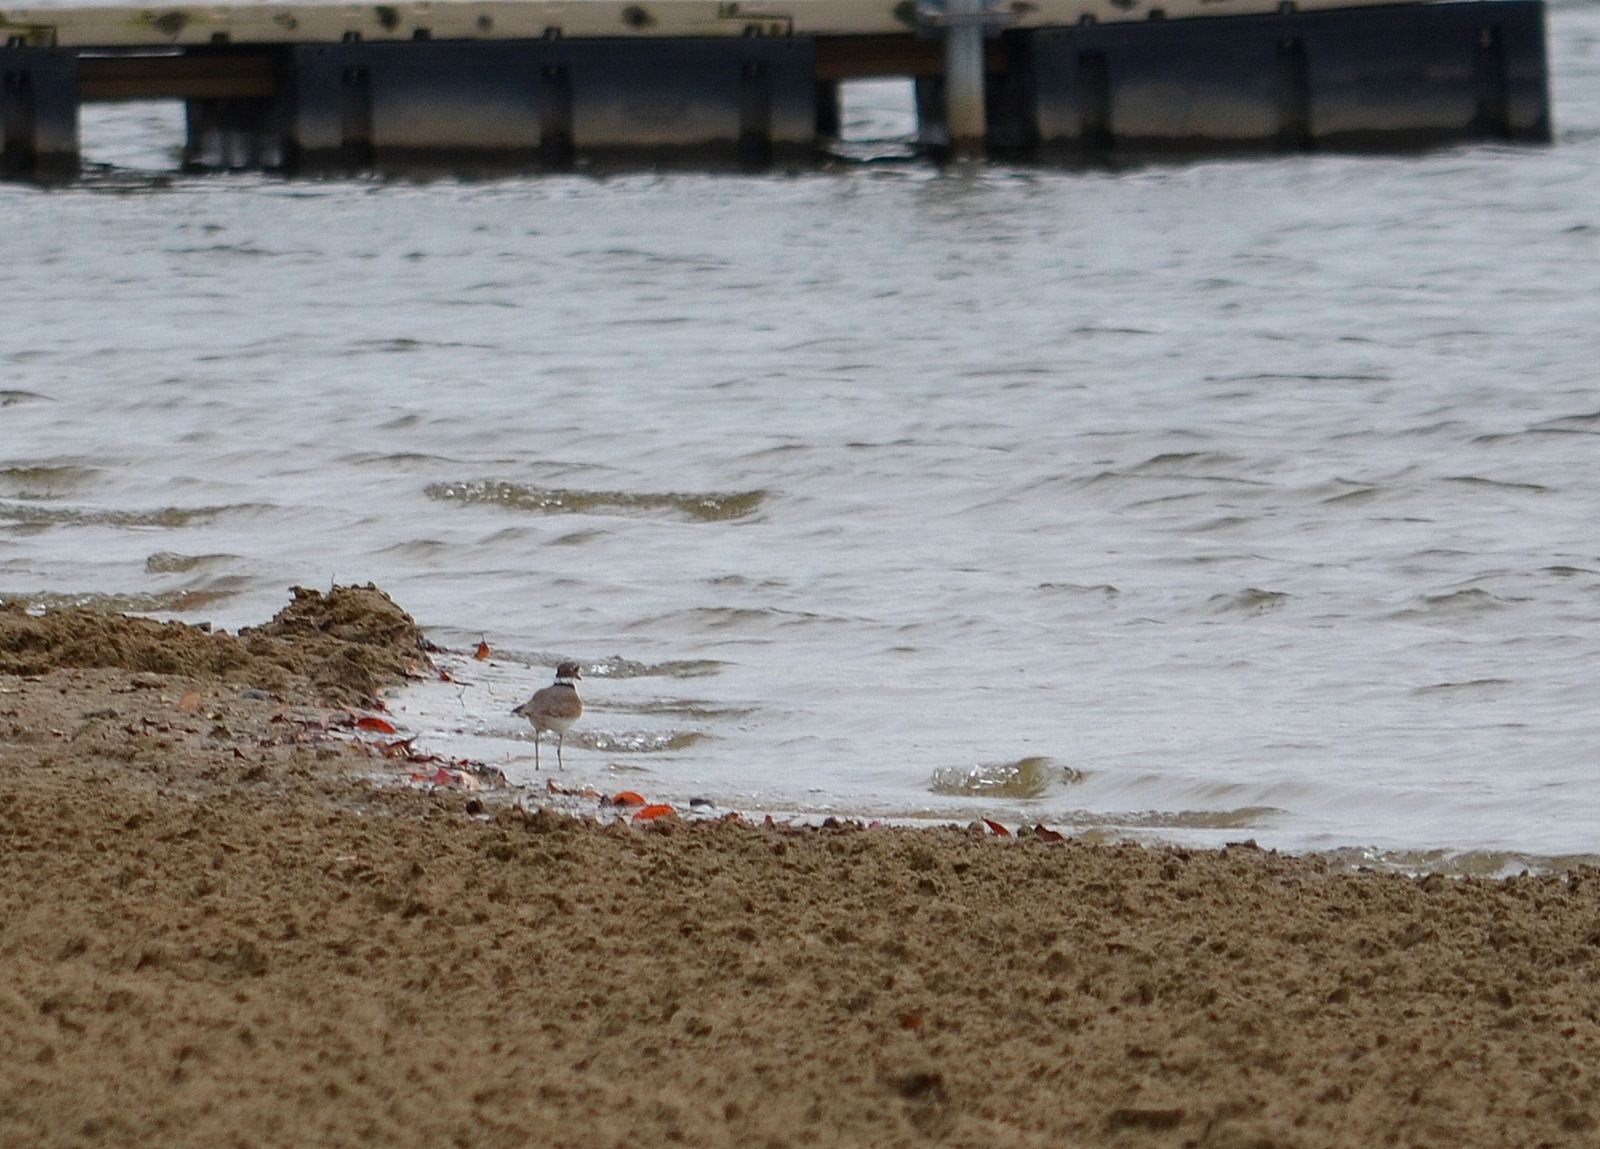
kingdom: Animalia
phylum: Chordata
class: Aves
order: Charadriiformes
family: Charadriidae
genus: Charadrius
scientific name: Charadrius vociferus
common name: Killdeer
